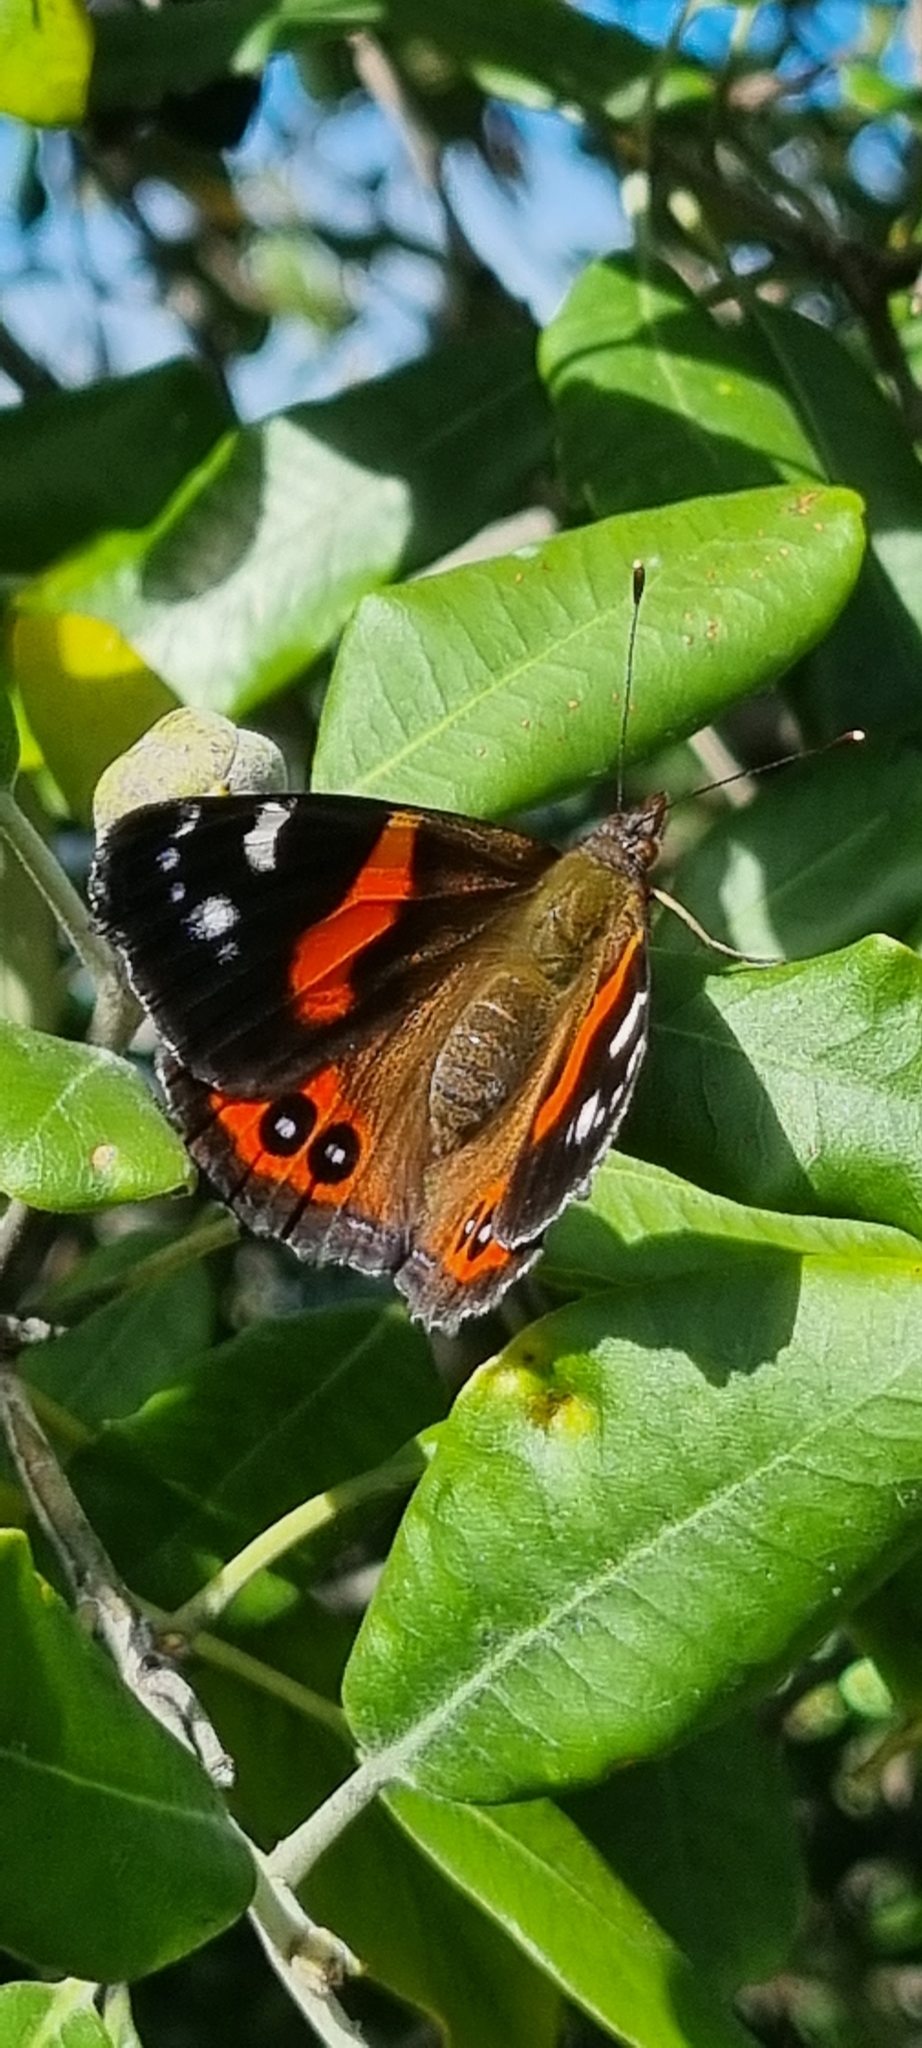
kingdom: Animalia
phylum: Arthropoda
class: Insecta
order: Lepidoptera
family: Nymphalidae
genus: Vanessa
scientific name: Vanessa gonerilla
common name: New zealand red admiral
